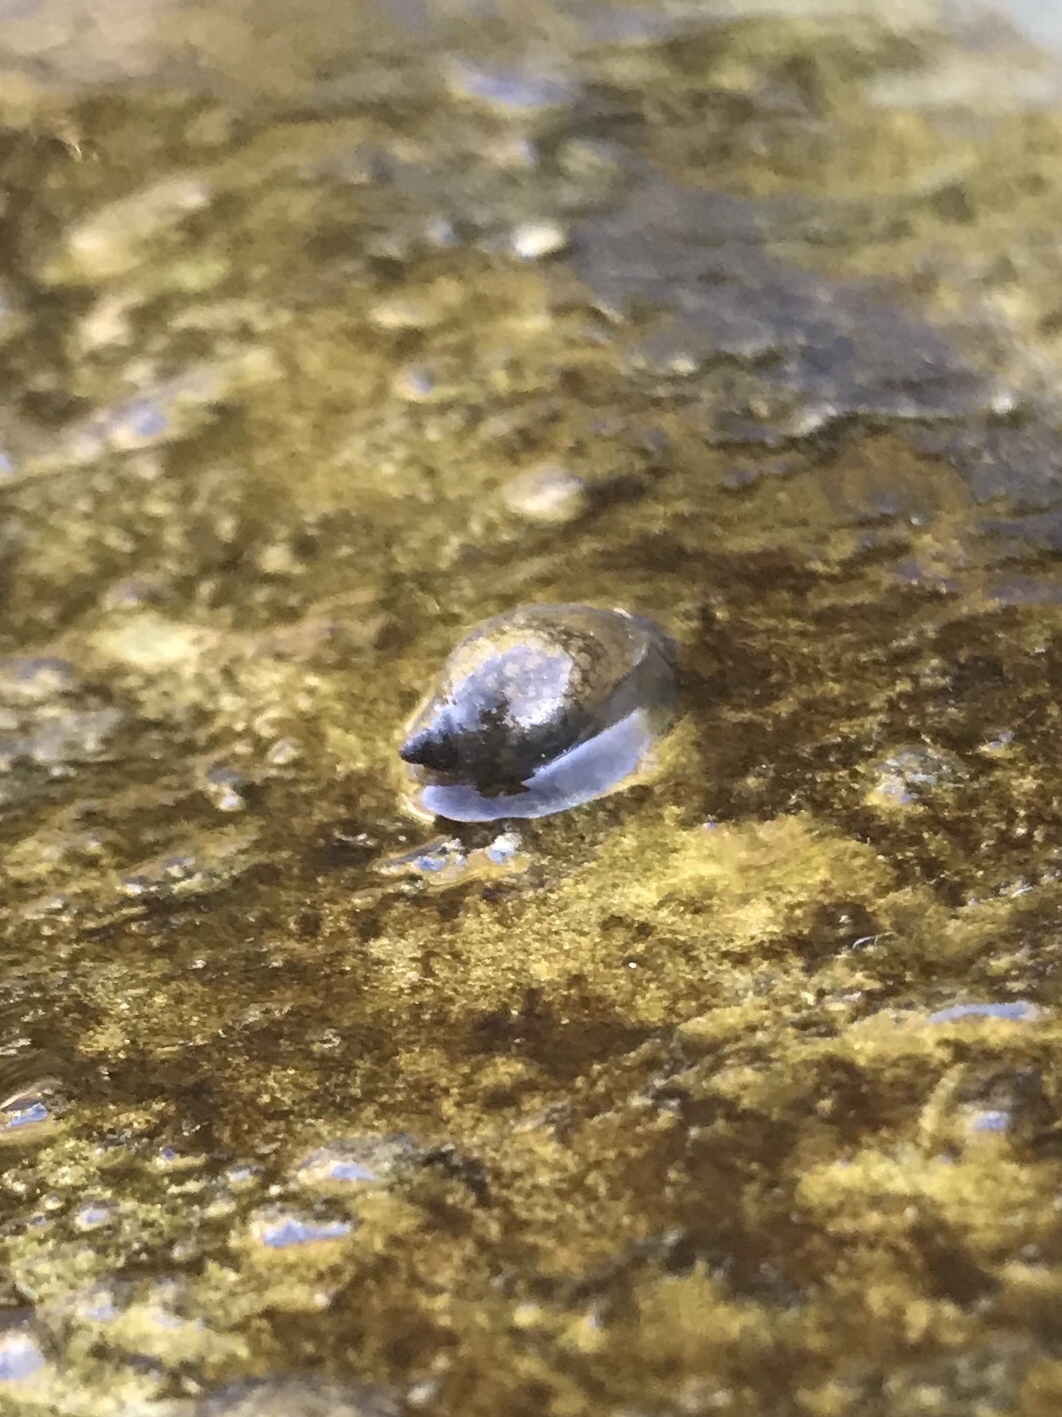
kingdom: Animalia
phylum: Mollusca
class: Gastropoda
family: Physidae
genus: Physella
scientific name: Physella acuta
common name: European physa
